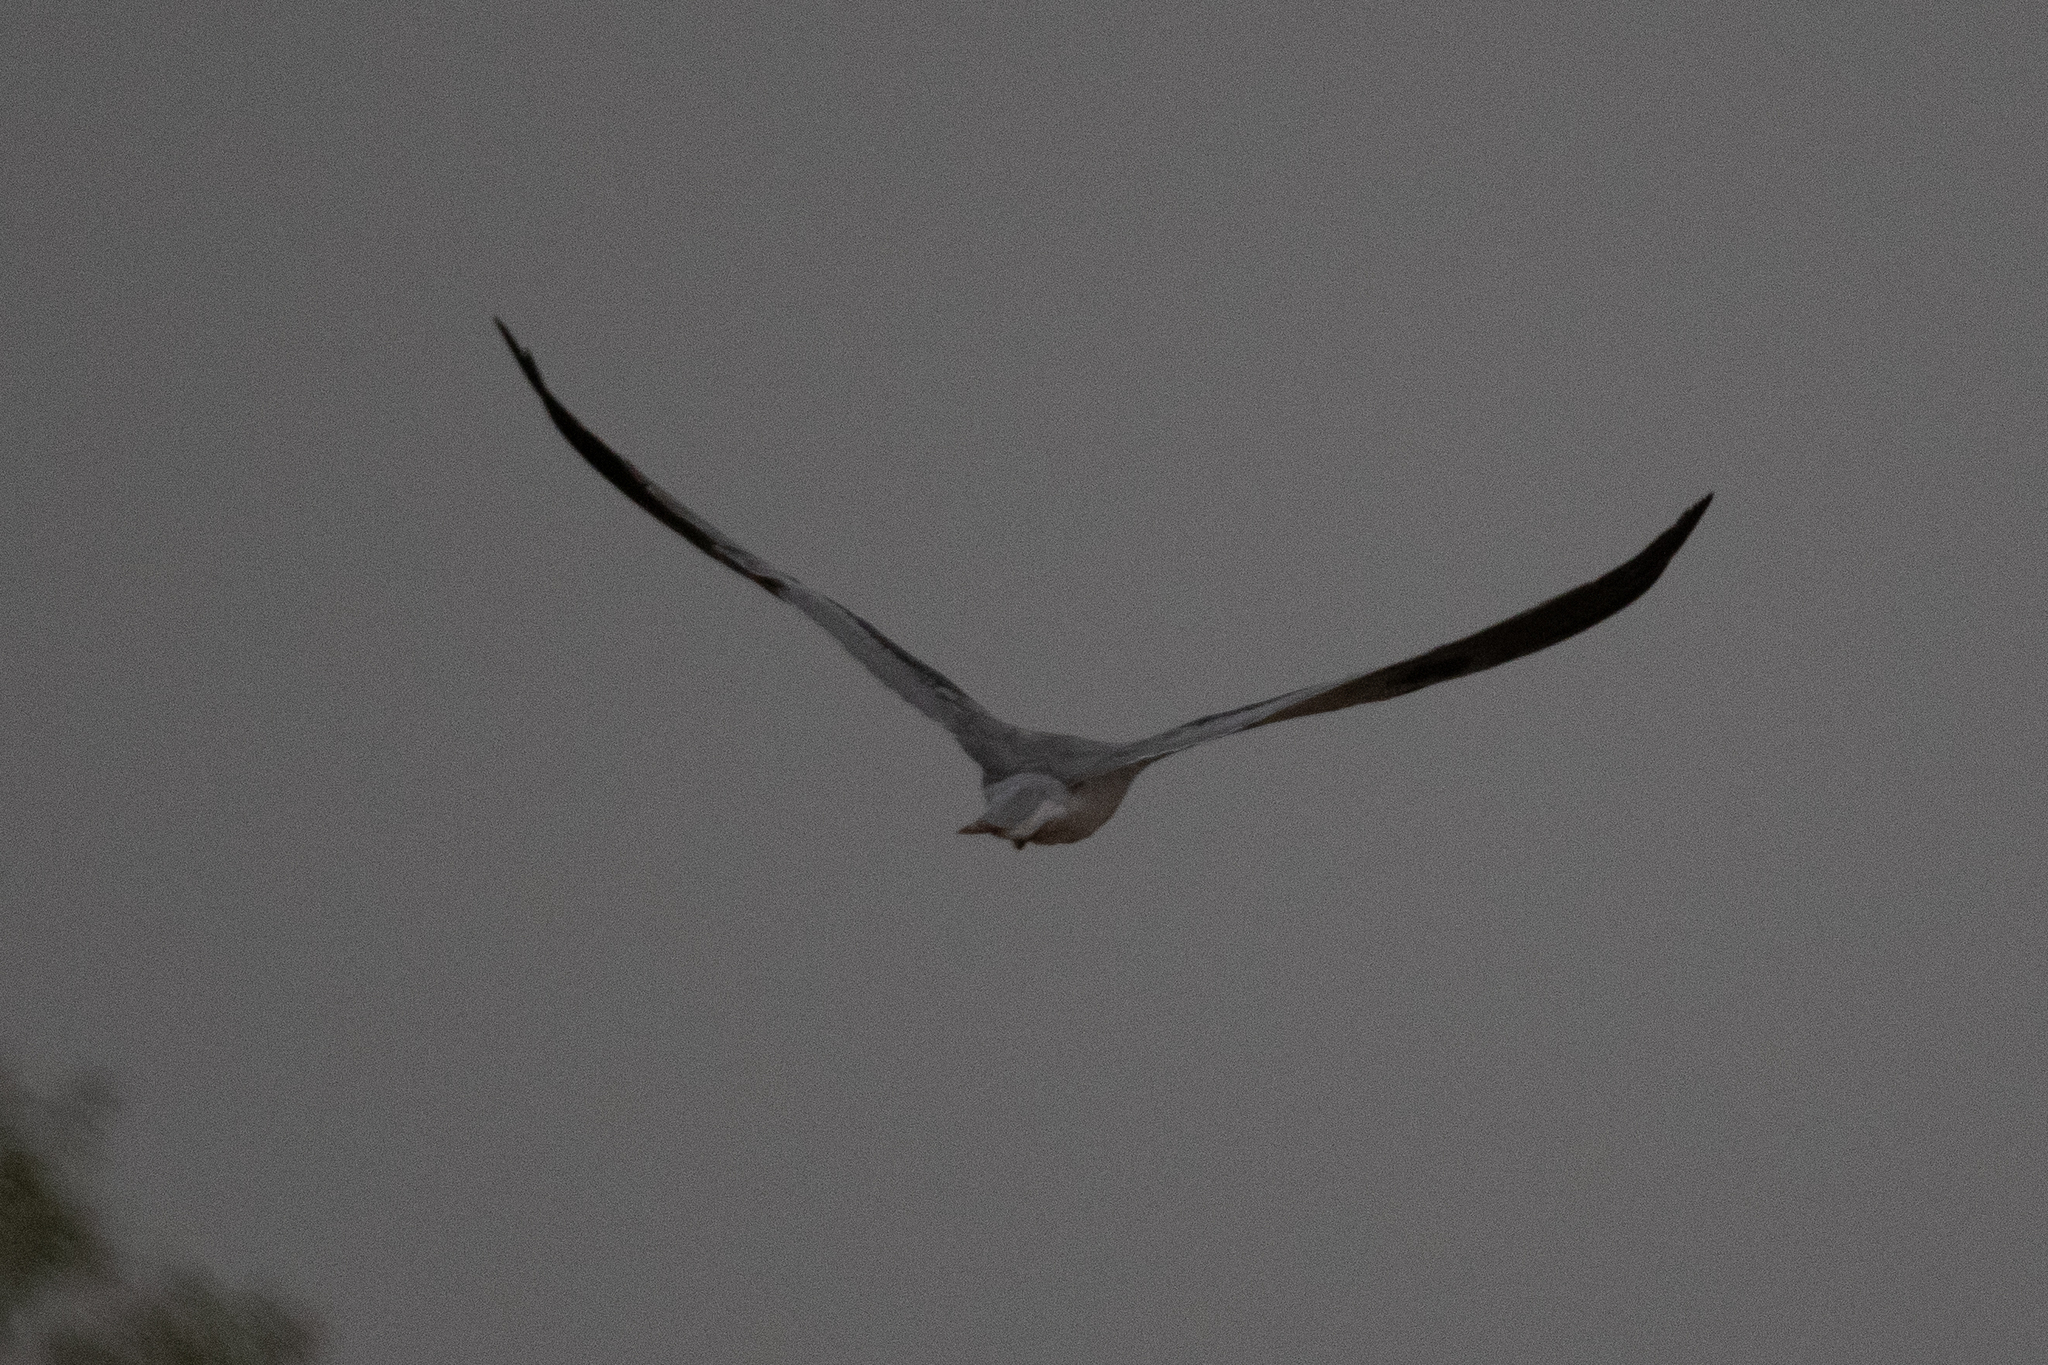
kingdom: Animalia
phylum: Chordata
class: Aves
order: Accipitriformes
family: Accipitridae
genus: Elanus
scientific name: Elanus leucurus
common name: White-tailed kite
